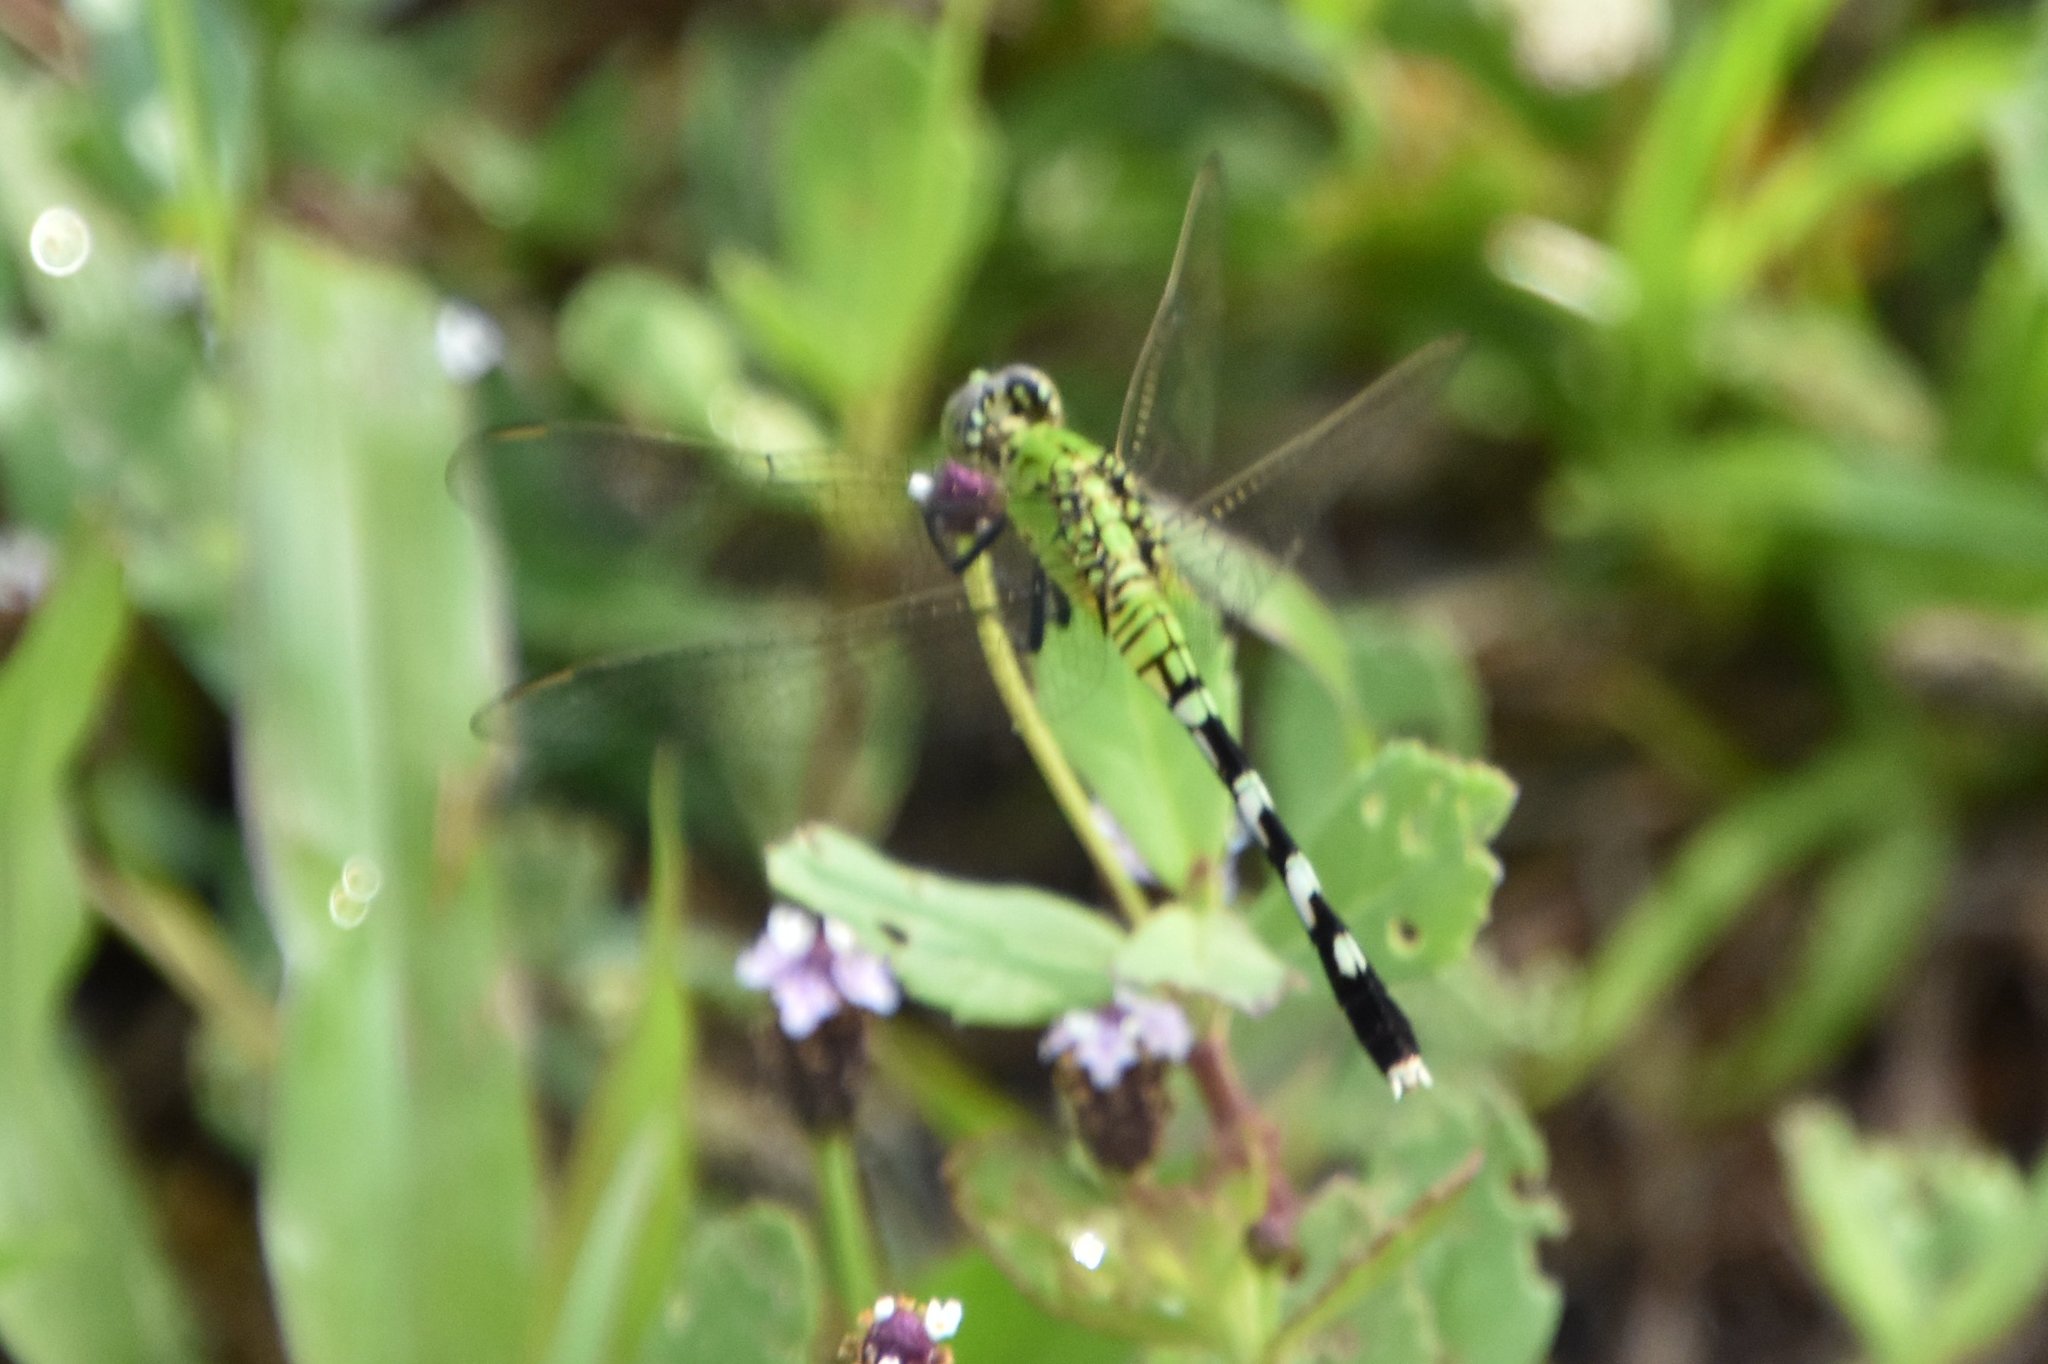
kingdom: Animalia
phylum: Arthropoda
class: Insecta
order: Odonata
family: Libellulidae
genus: Erythemis
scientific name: Erythemis simplicicollis
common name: Eastern pondhawk
